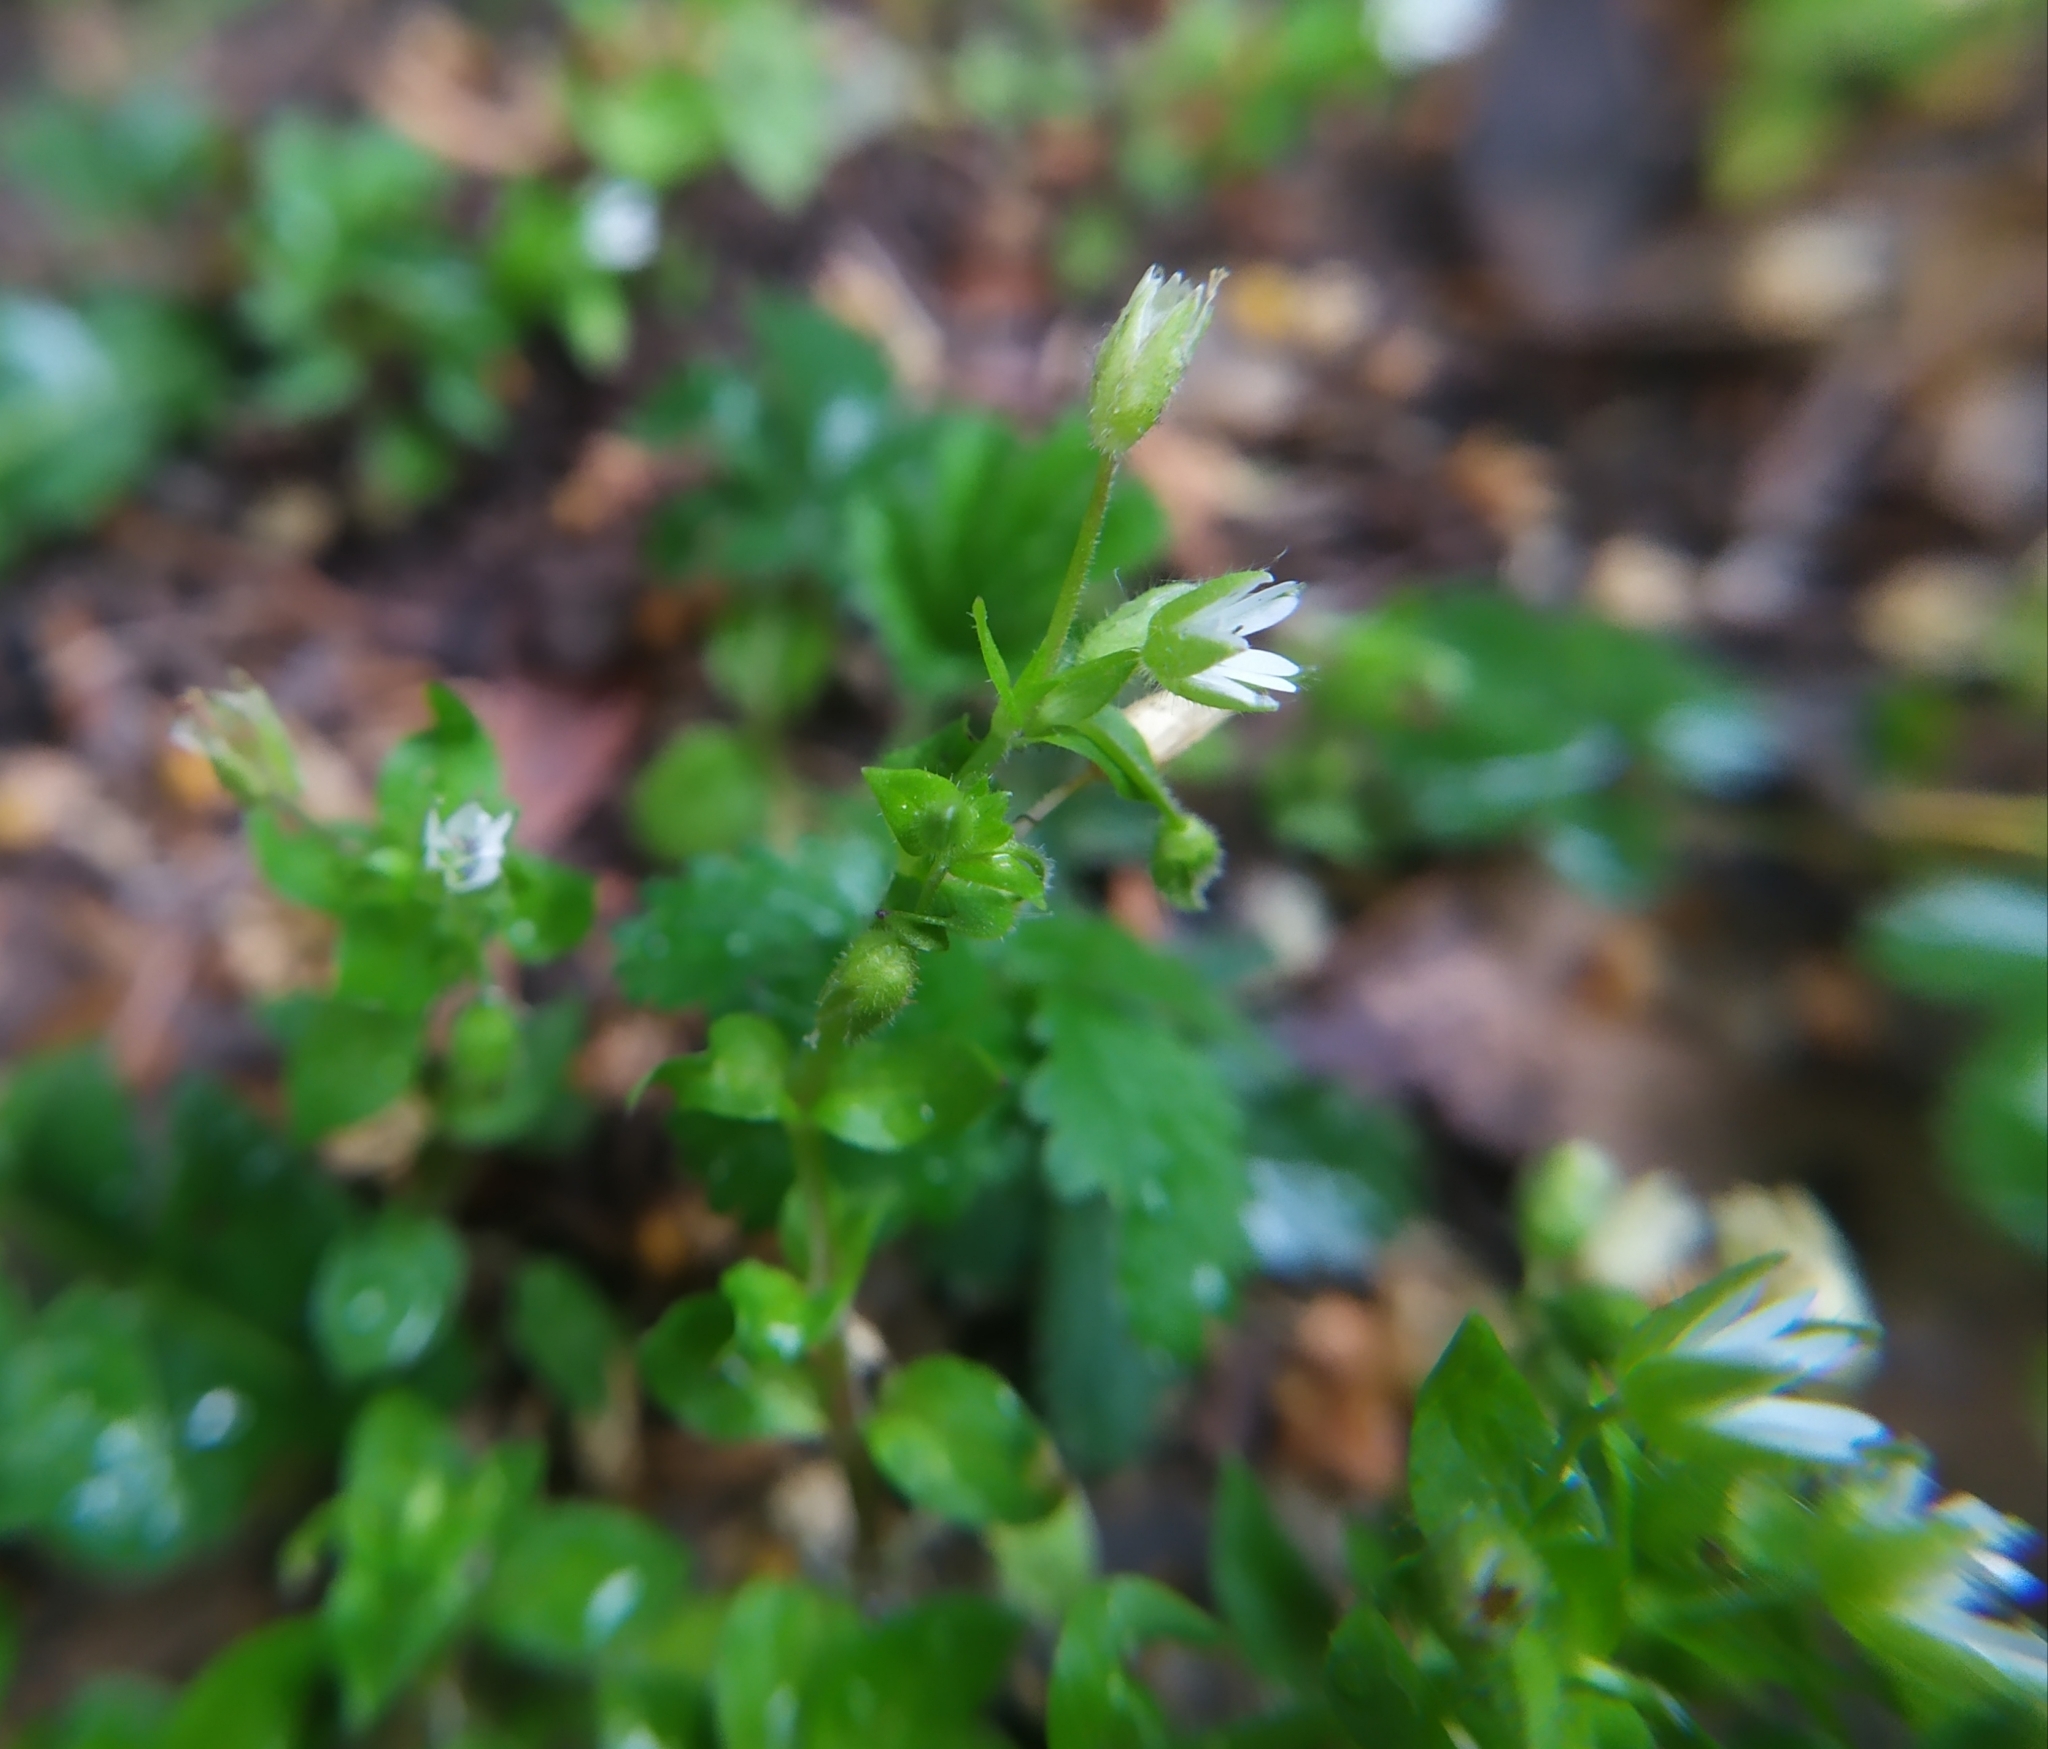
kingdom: Plantae
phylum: Tracheophyta
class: Magnoliopsida
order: Caryophyllales
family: Caryophyllaceae
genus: Stellaria
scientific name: Stellaria ruderalis
